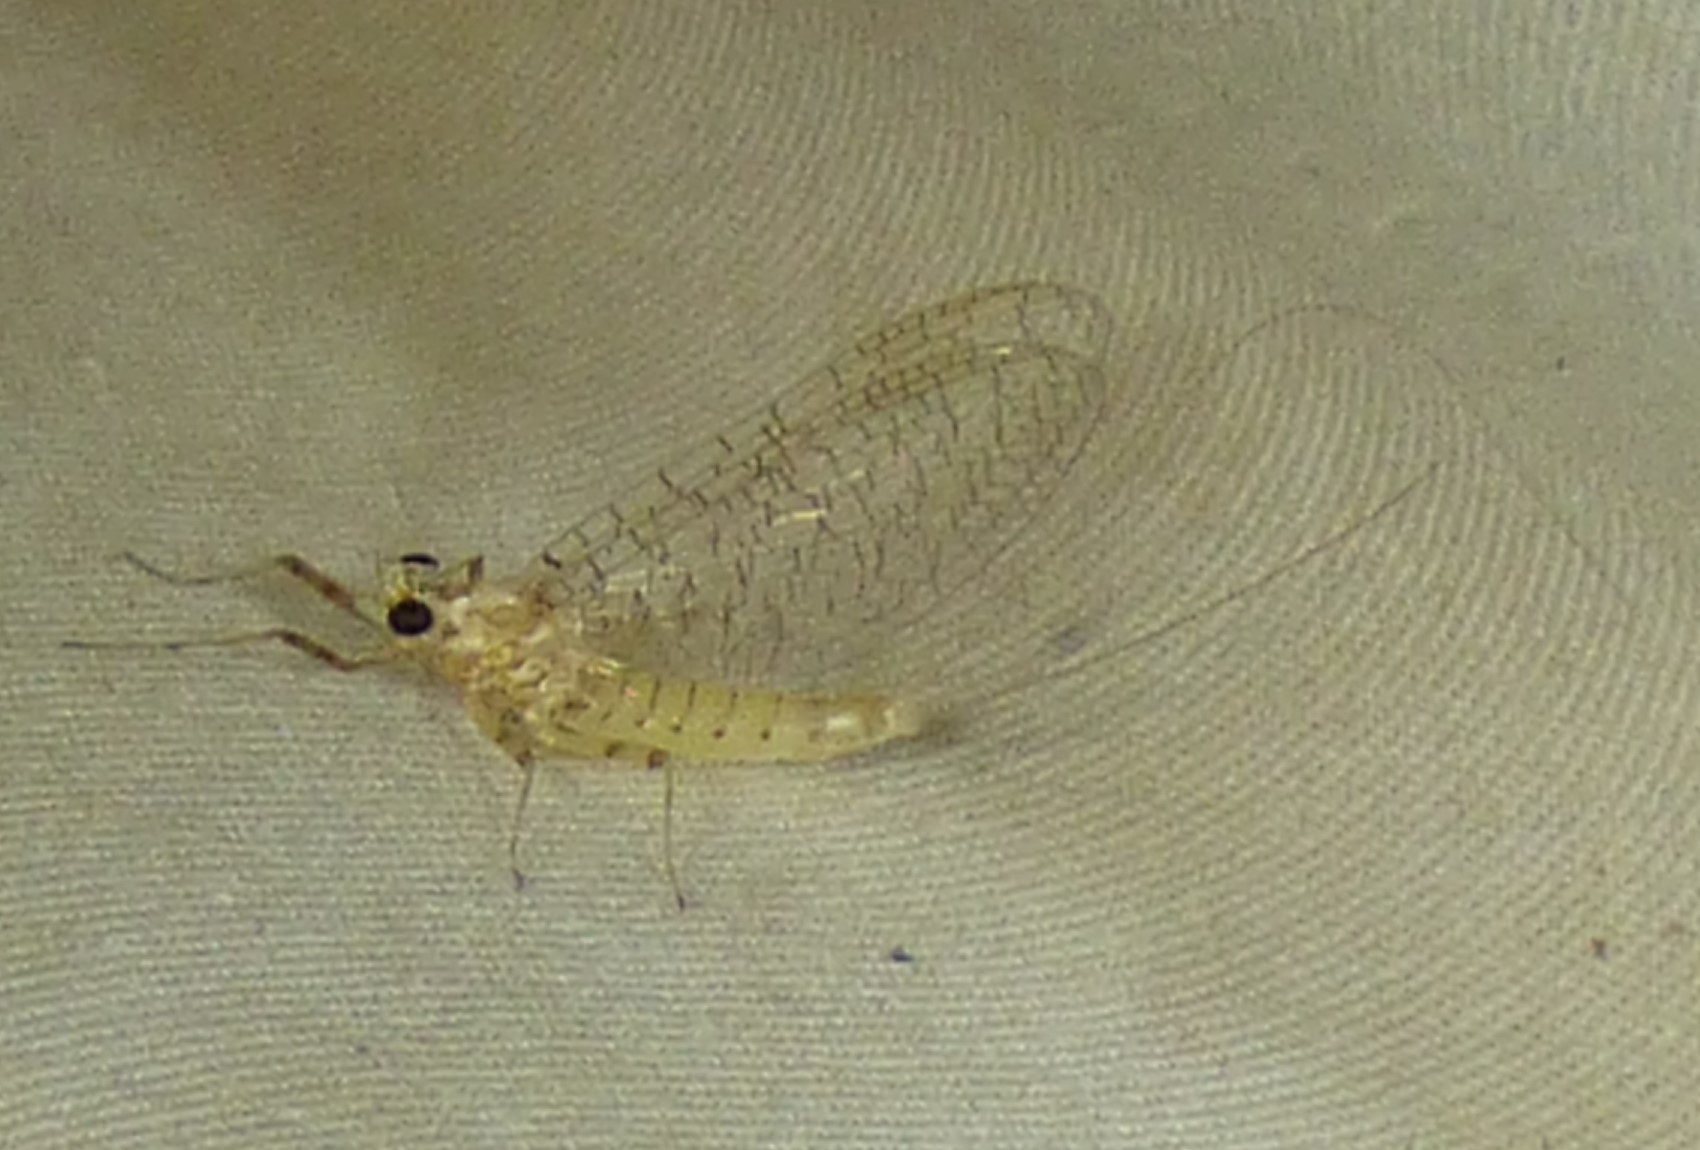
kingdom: Animalia
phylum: Arthropoda
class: Insecta
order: Ephemeroptera
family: Heptageniidae
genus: Maccaffertium
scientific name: Maccaffertium mediopunctatum
